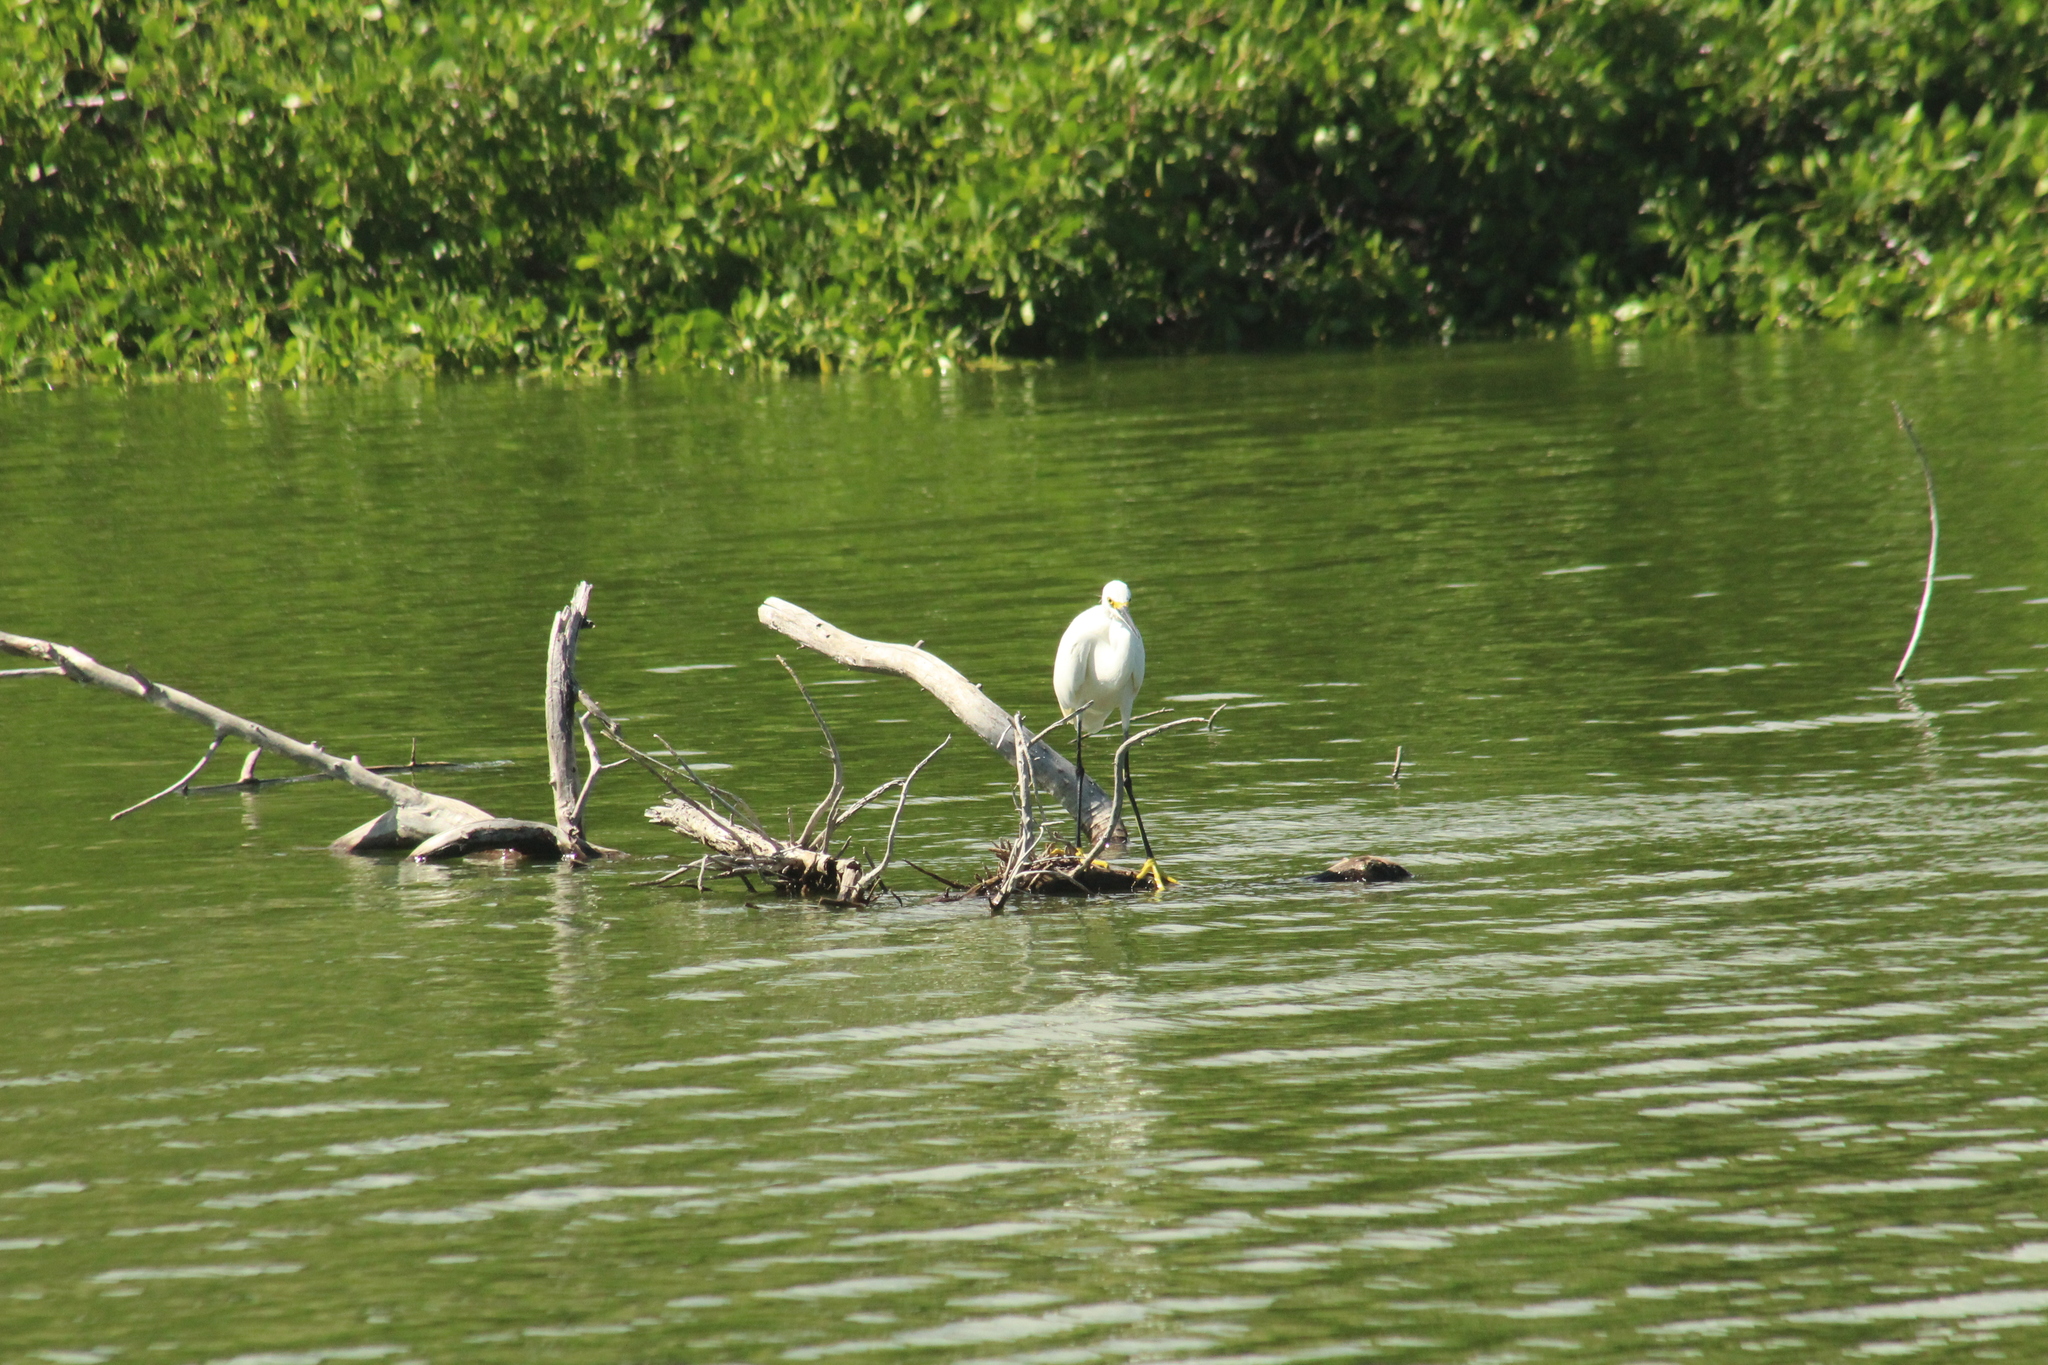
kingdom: Animalia
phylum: Chordata
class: Aves
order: Pelecaniformes
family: Ardeidae
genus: Egretta
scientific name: Egretta thula
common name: Snowy egret
